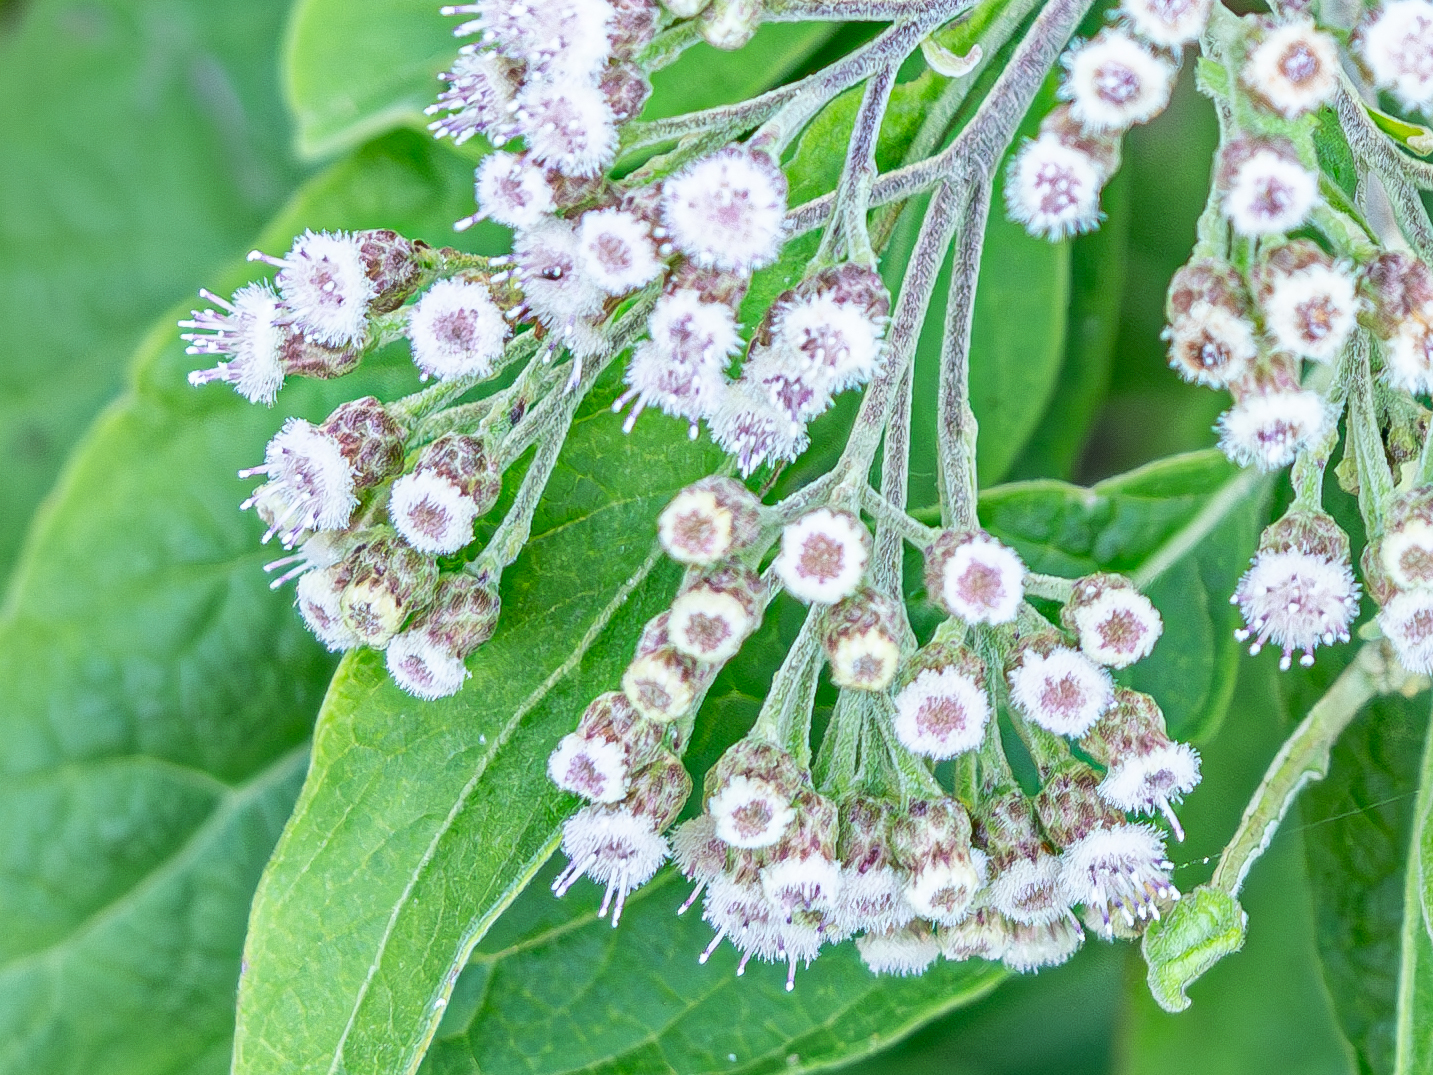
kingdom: Plantae
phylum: Tracheophyta
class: Magnoliopsida
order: Asterales
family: Asteraceae
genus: Pluchea
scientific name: Pluchea odorata
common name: Saltmarsh fleabane
